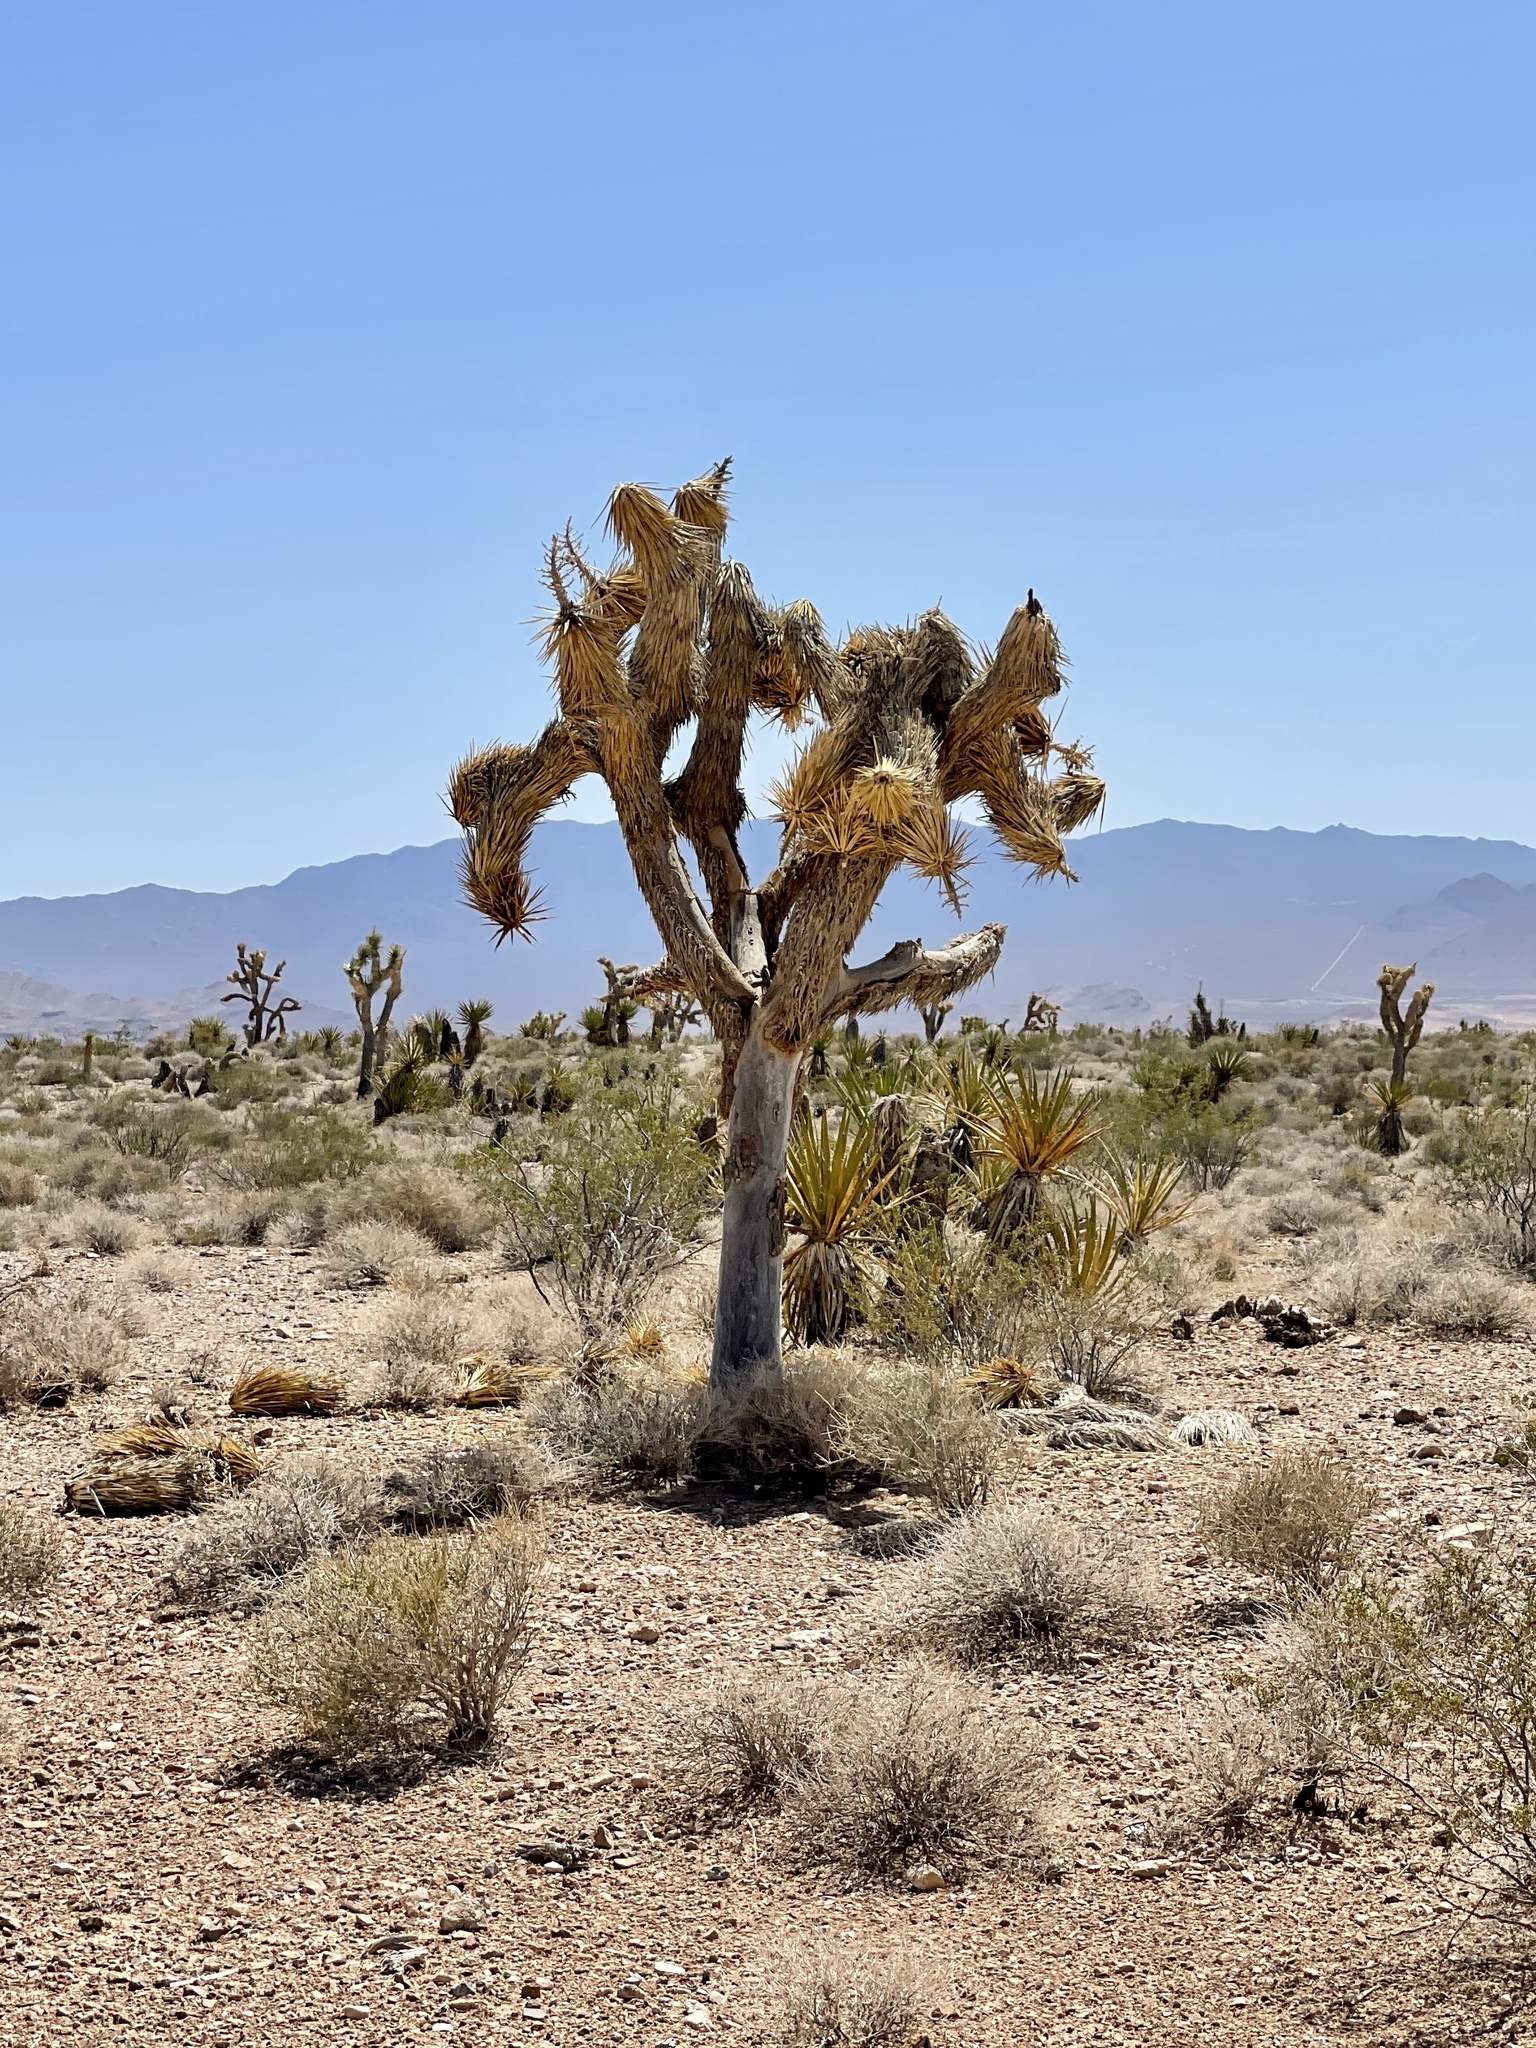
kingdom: Plantae
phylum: Tracheophyta
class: Liliopsida
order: Asparagales
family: Asparagaceae
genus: Yucca
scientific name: Yucca brevifolia
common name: Joshua tree
